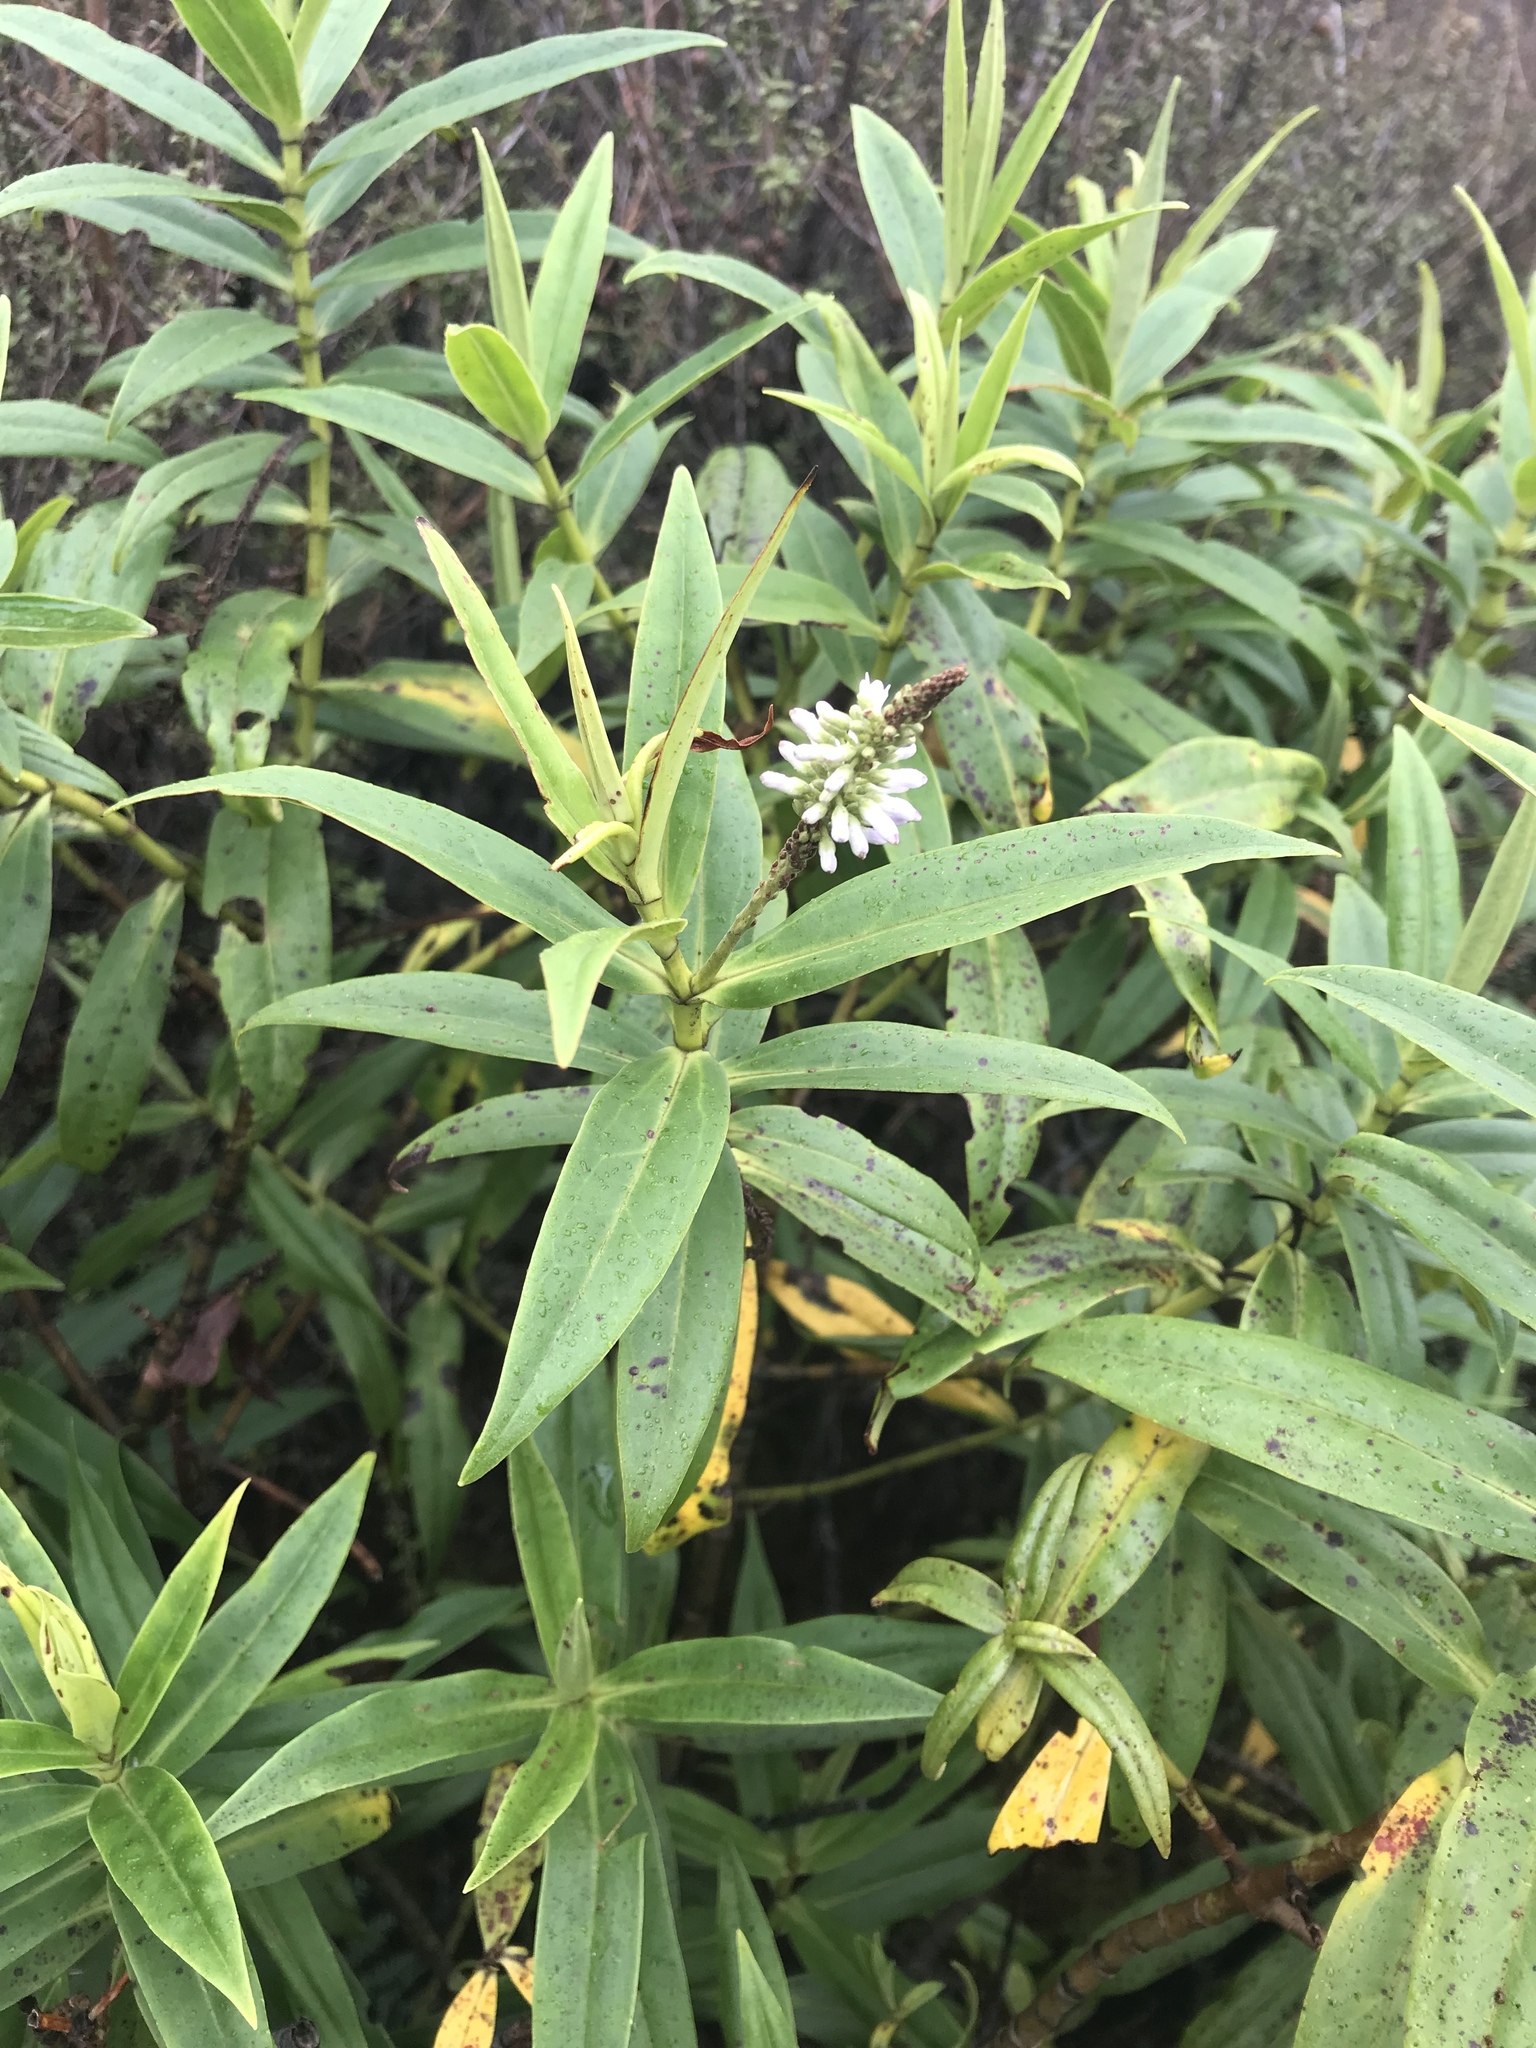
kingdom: Plantae
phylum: Tracheophyta
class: Magnoliopsida
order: Lamiales
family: Plantaginaceae
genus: Veronica
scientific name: Veronica stricta
